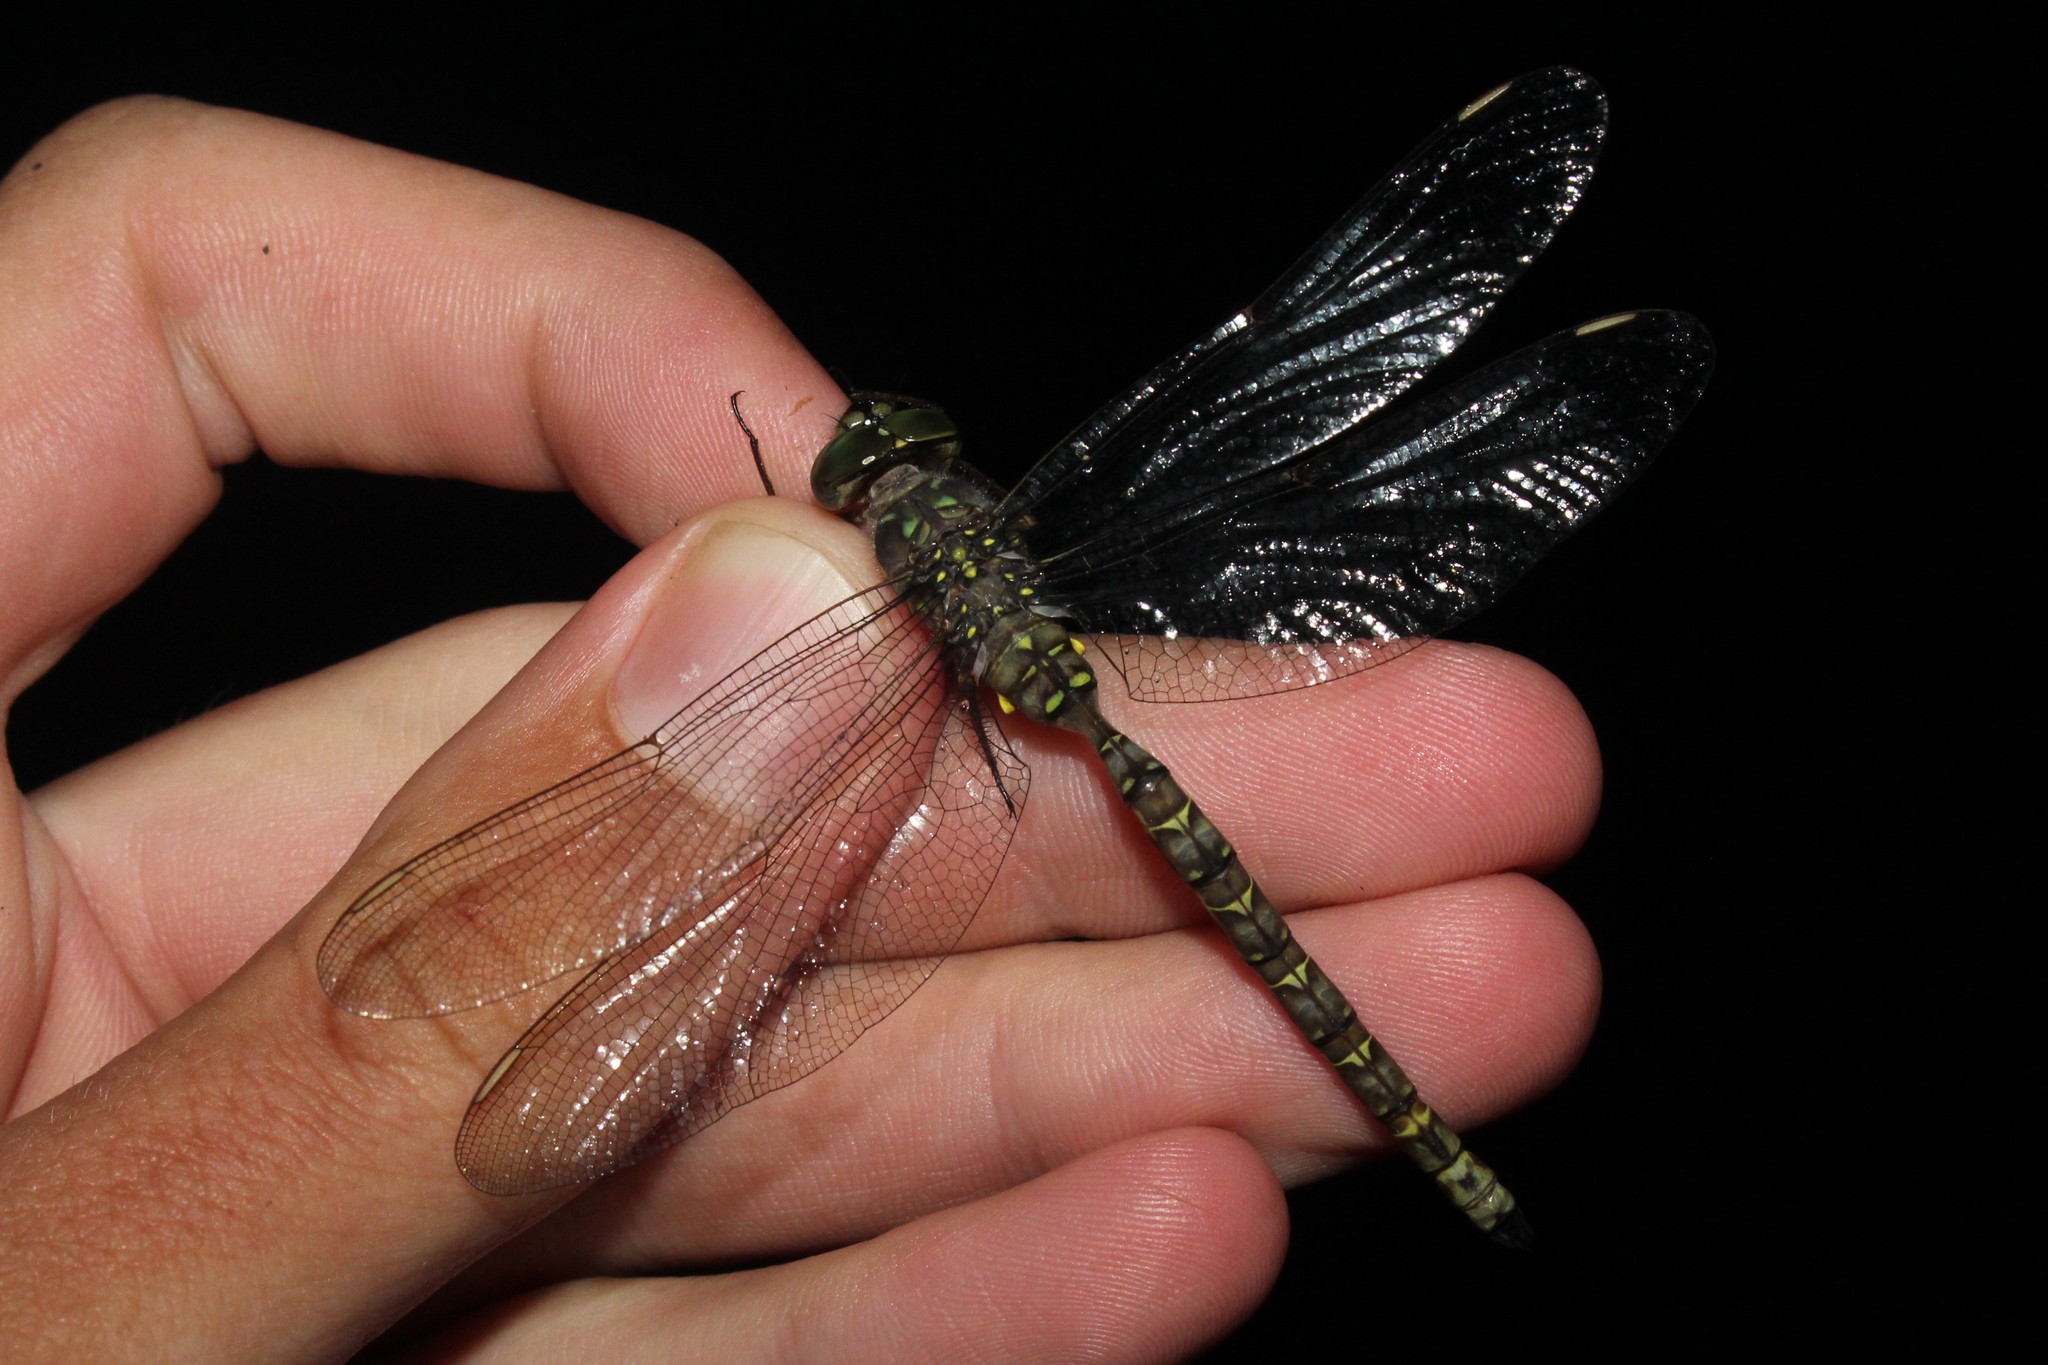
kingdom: Animalia
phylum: Arthropoda
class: Insecta
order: Odonata
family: Aeshnidae
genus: Boyeria
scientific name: Boyeria grafiana
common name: Ocellated darner
